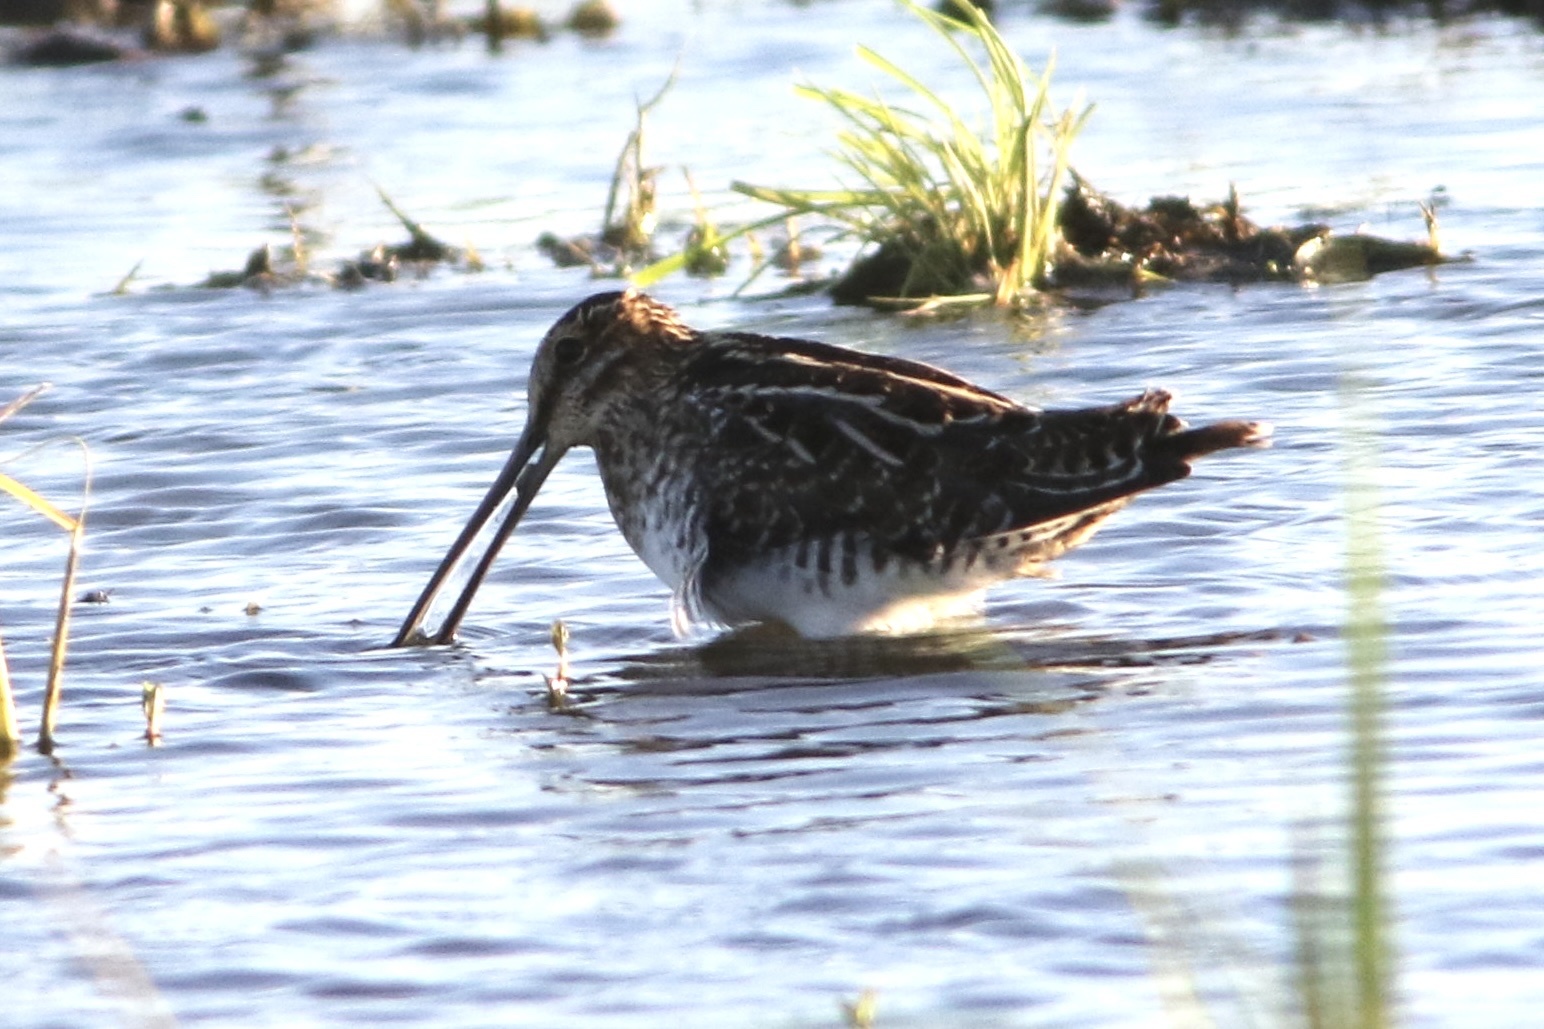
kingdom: Animalia
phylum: Chordata
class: Aves
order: Charadriiformes
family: Scolopacidae
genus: Gallinago
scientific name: Gallinago delicata
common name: Wilson's snipe
